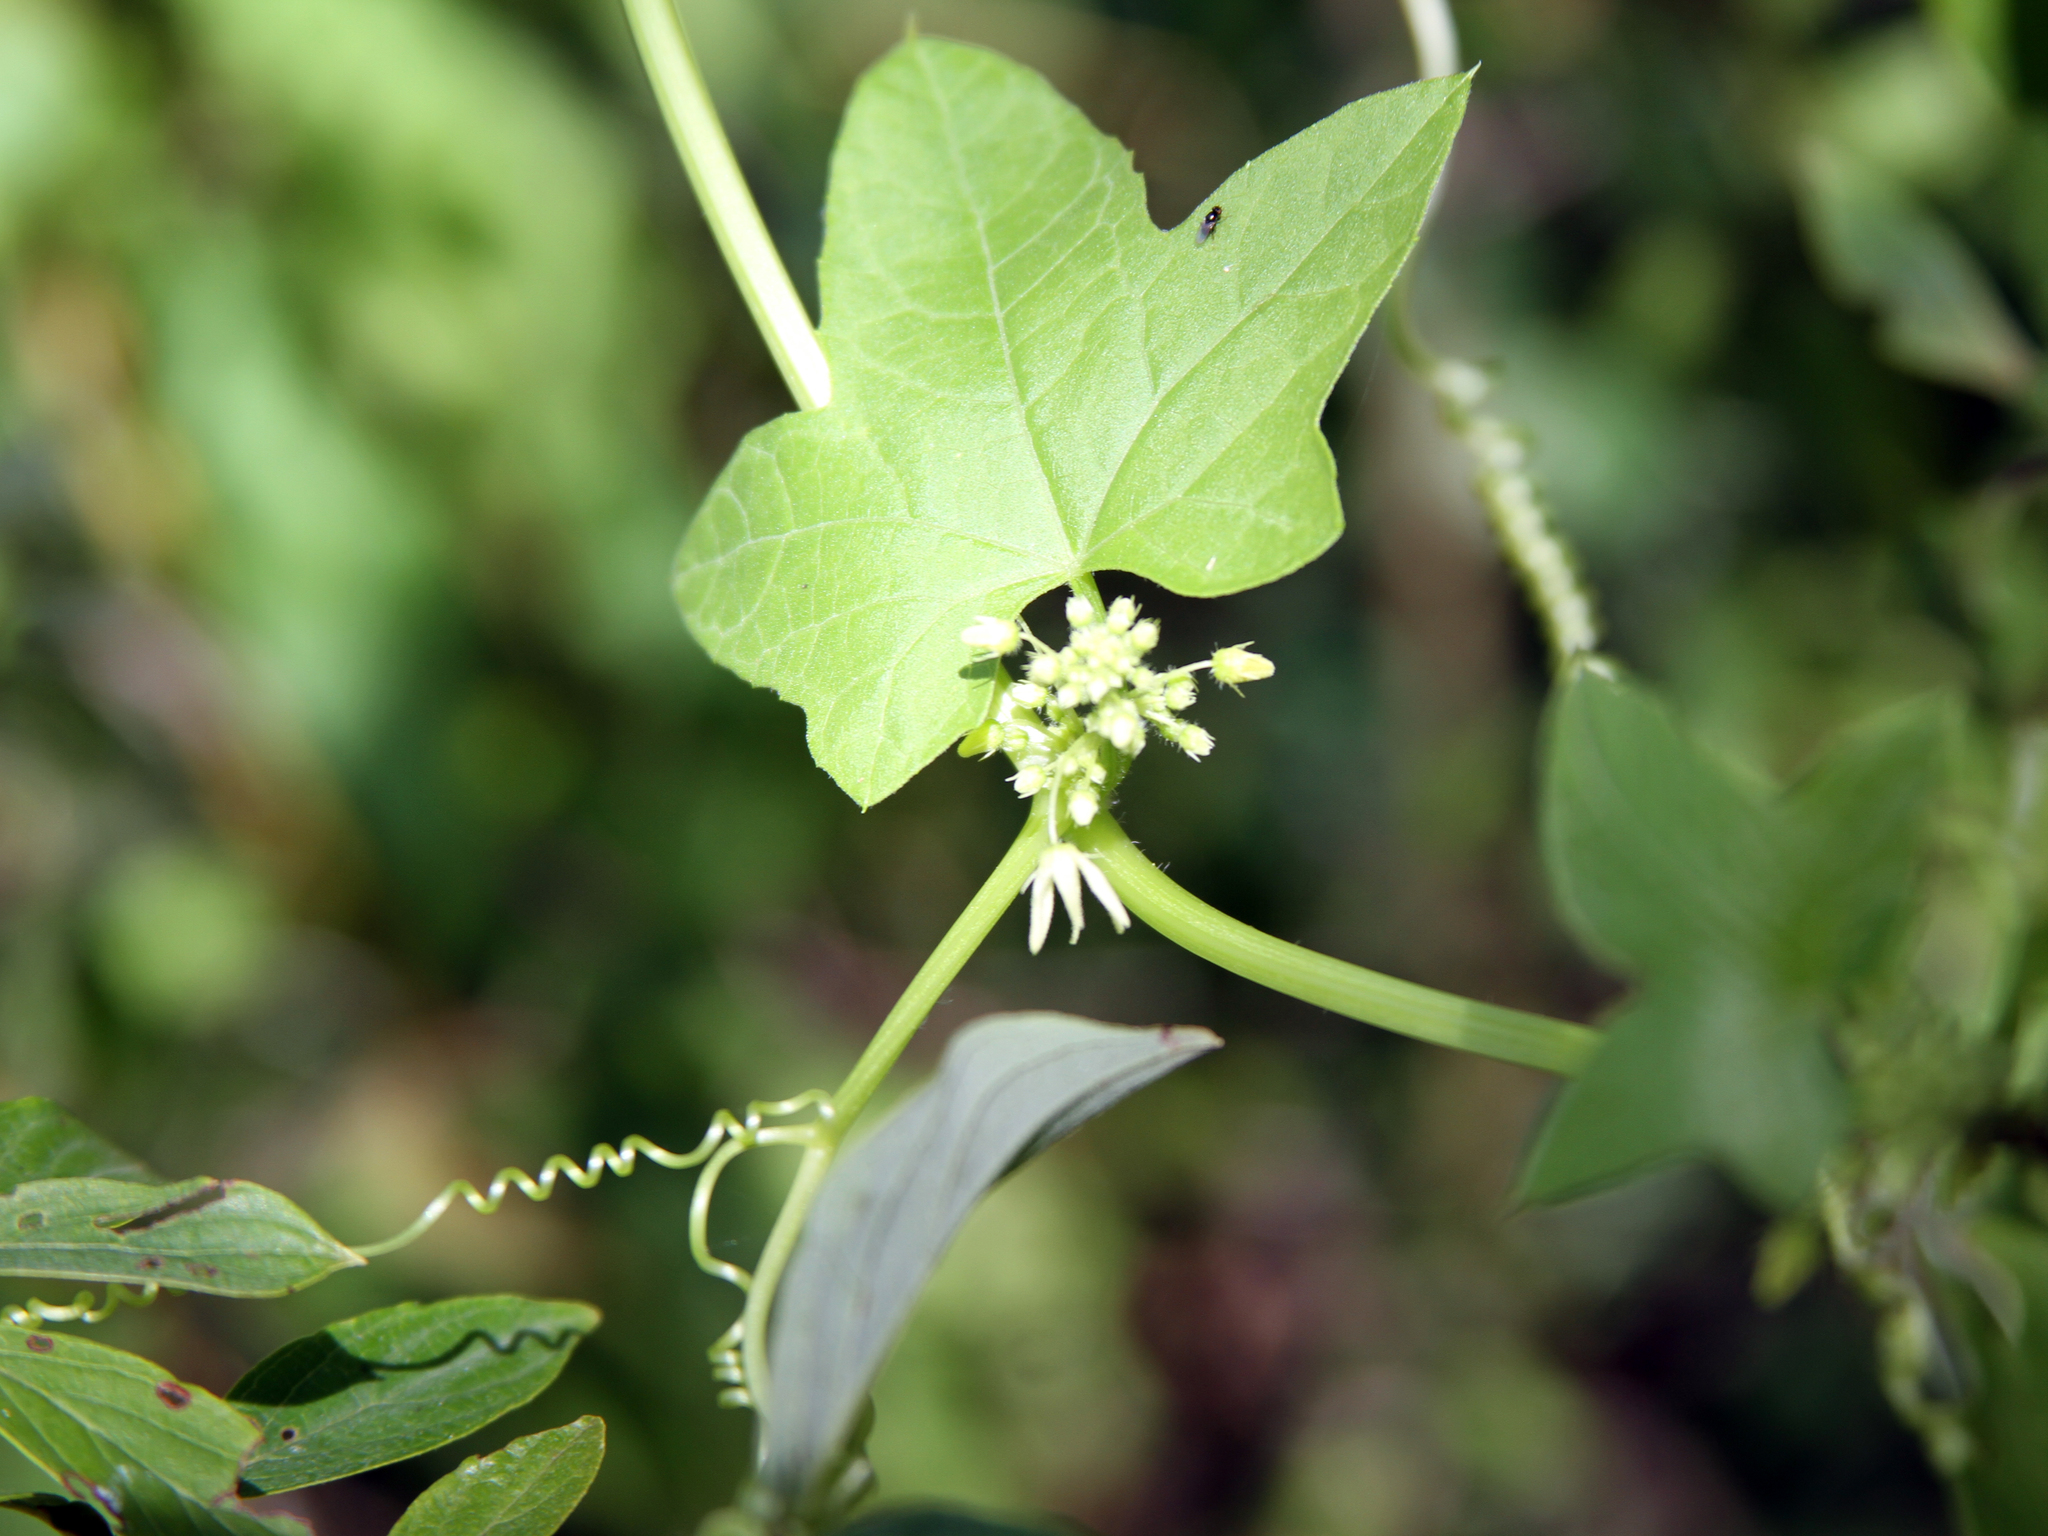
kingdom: Plantae
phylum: Tracheophyta
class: Magnoliopsida
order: Cucurbitales
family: Cucurbitaceae
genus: Echinocystis
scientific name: Echinocystis lobata
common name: Wild cucumber
